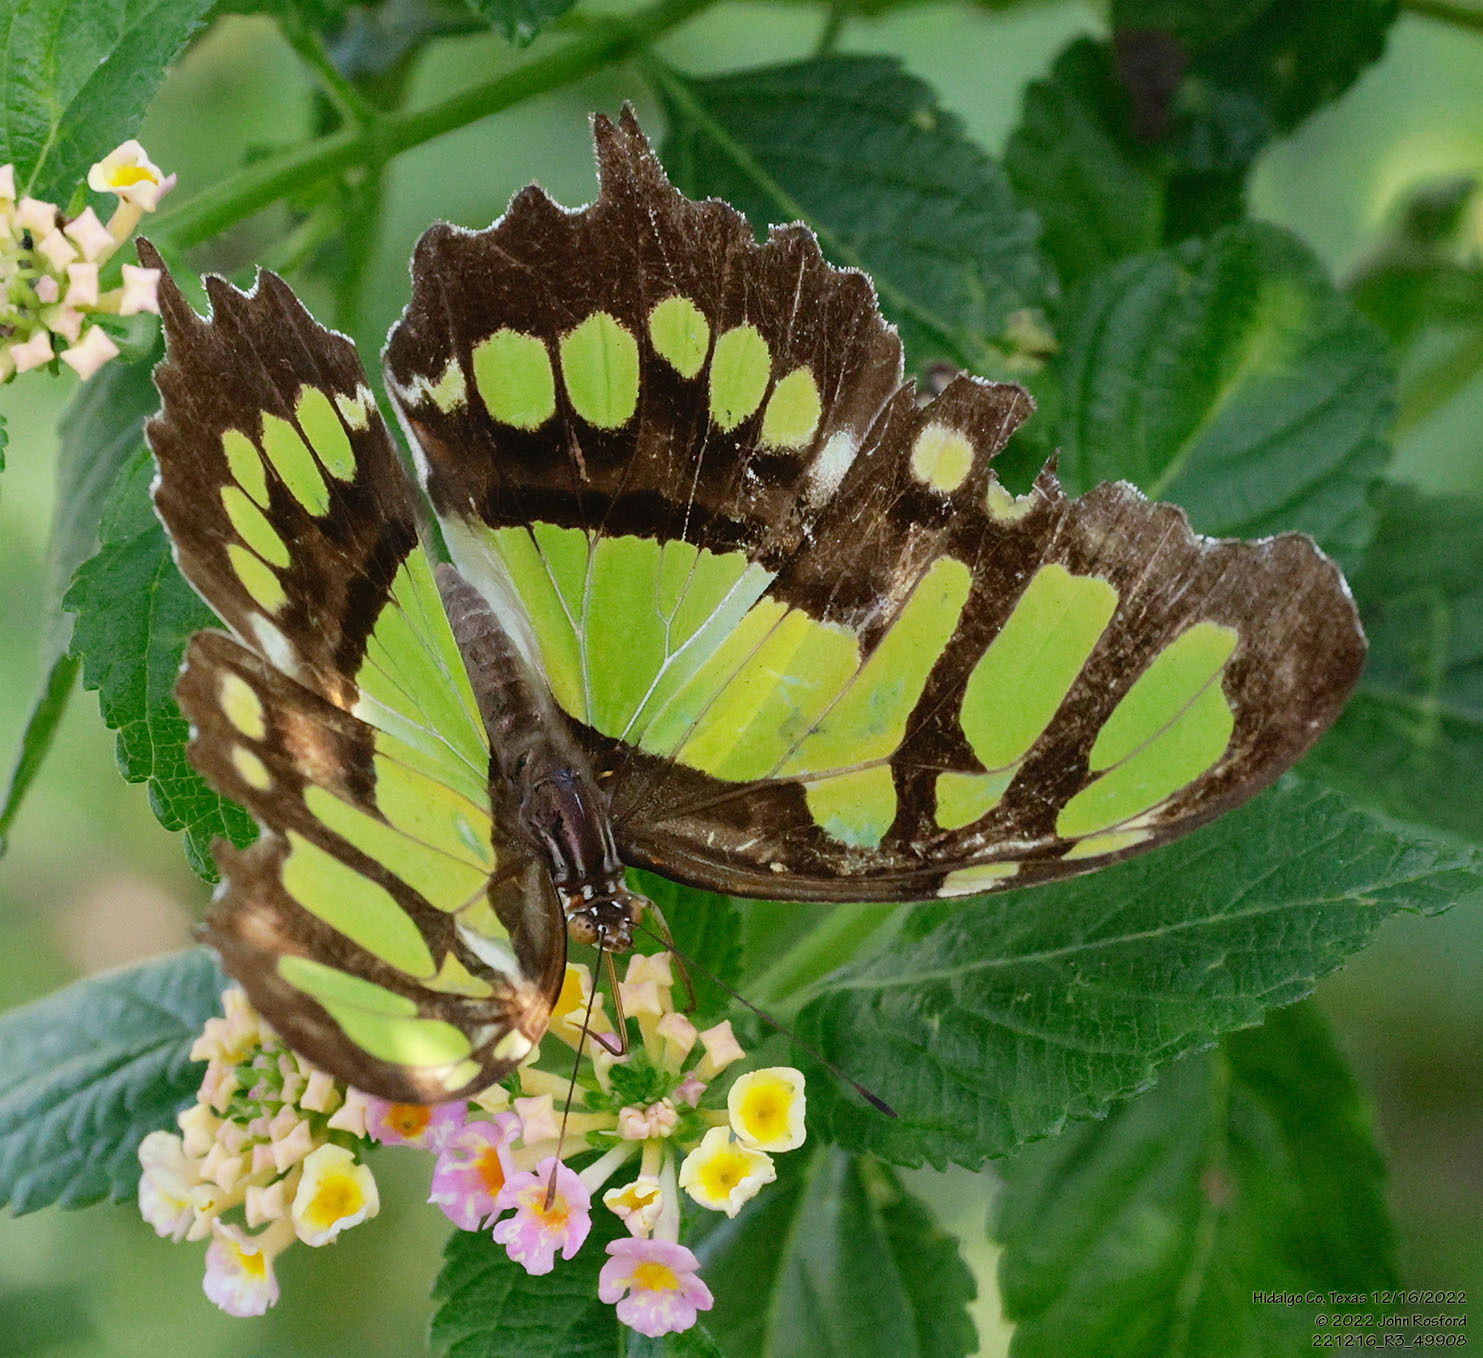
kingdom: Animalia
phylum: Arthropoda
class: Insecta
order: Lepidoptera
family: Nymphalidae
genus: Siproeta
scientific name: Siproeta stelenes
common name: Malachite
